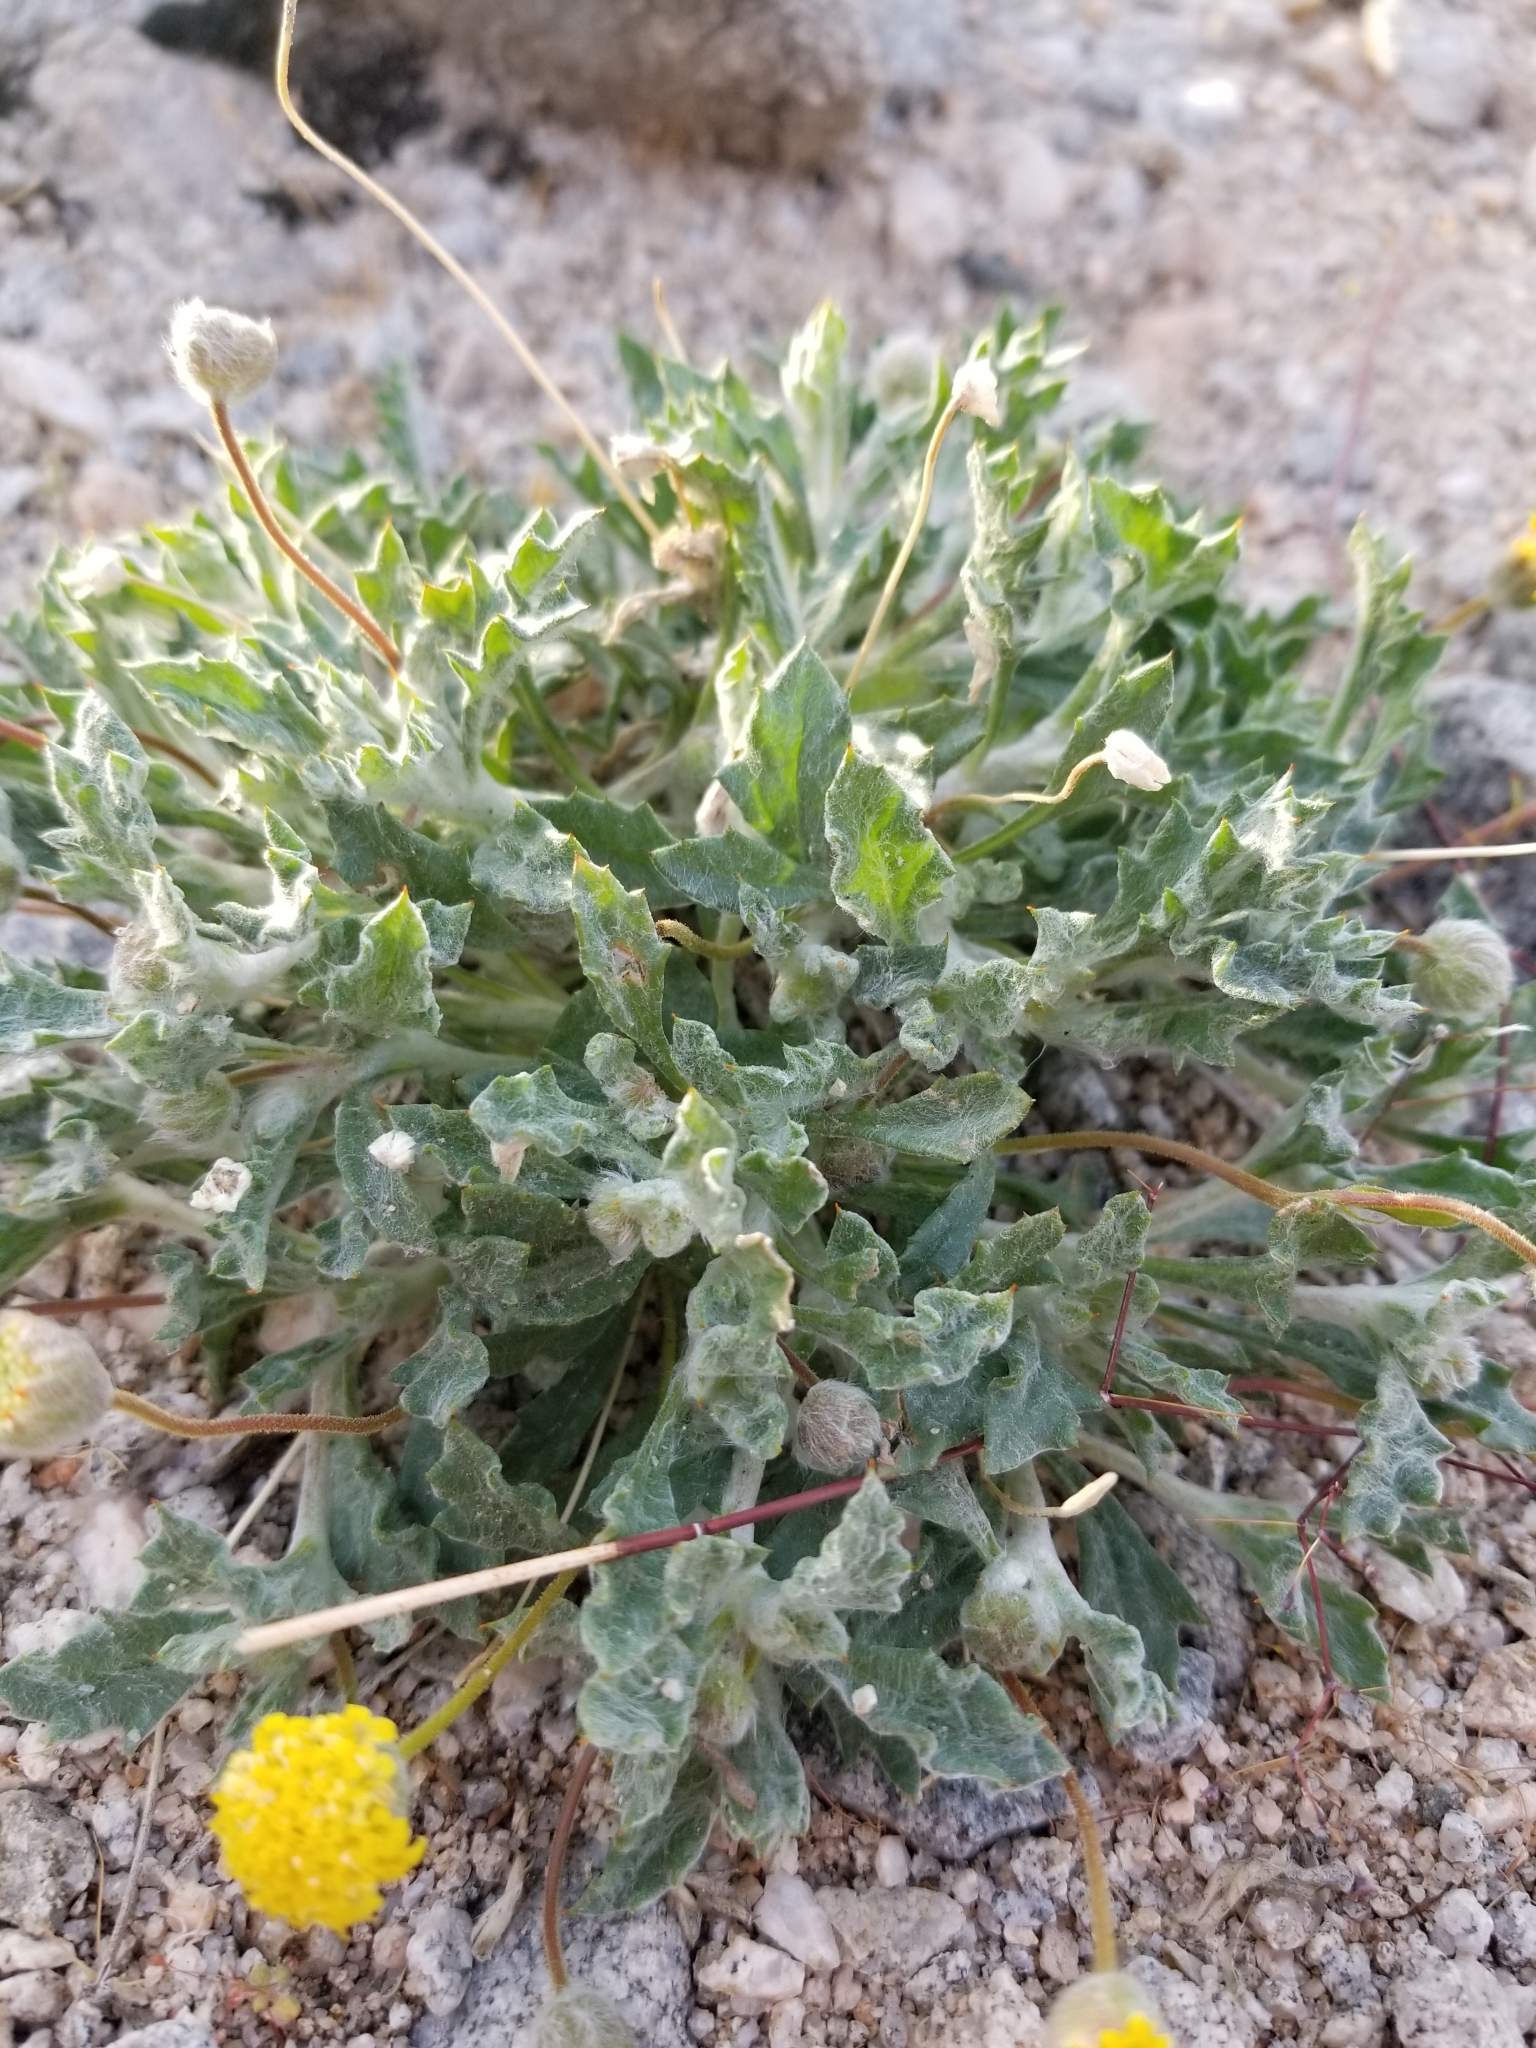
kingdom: Plantae
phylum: Tracheophyta
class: Magnoliopsida
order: Asterales
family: Asteraceae
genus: Trichoptilium
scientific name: Trichoptilium incisum
